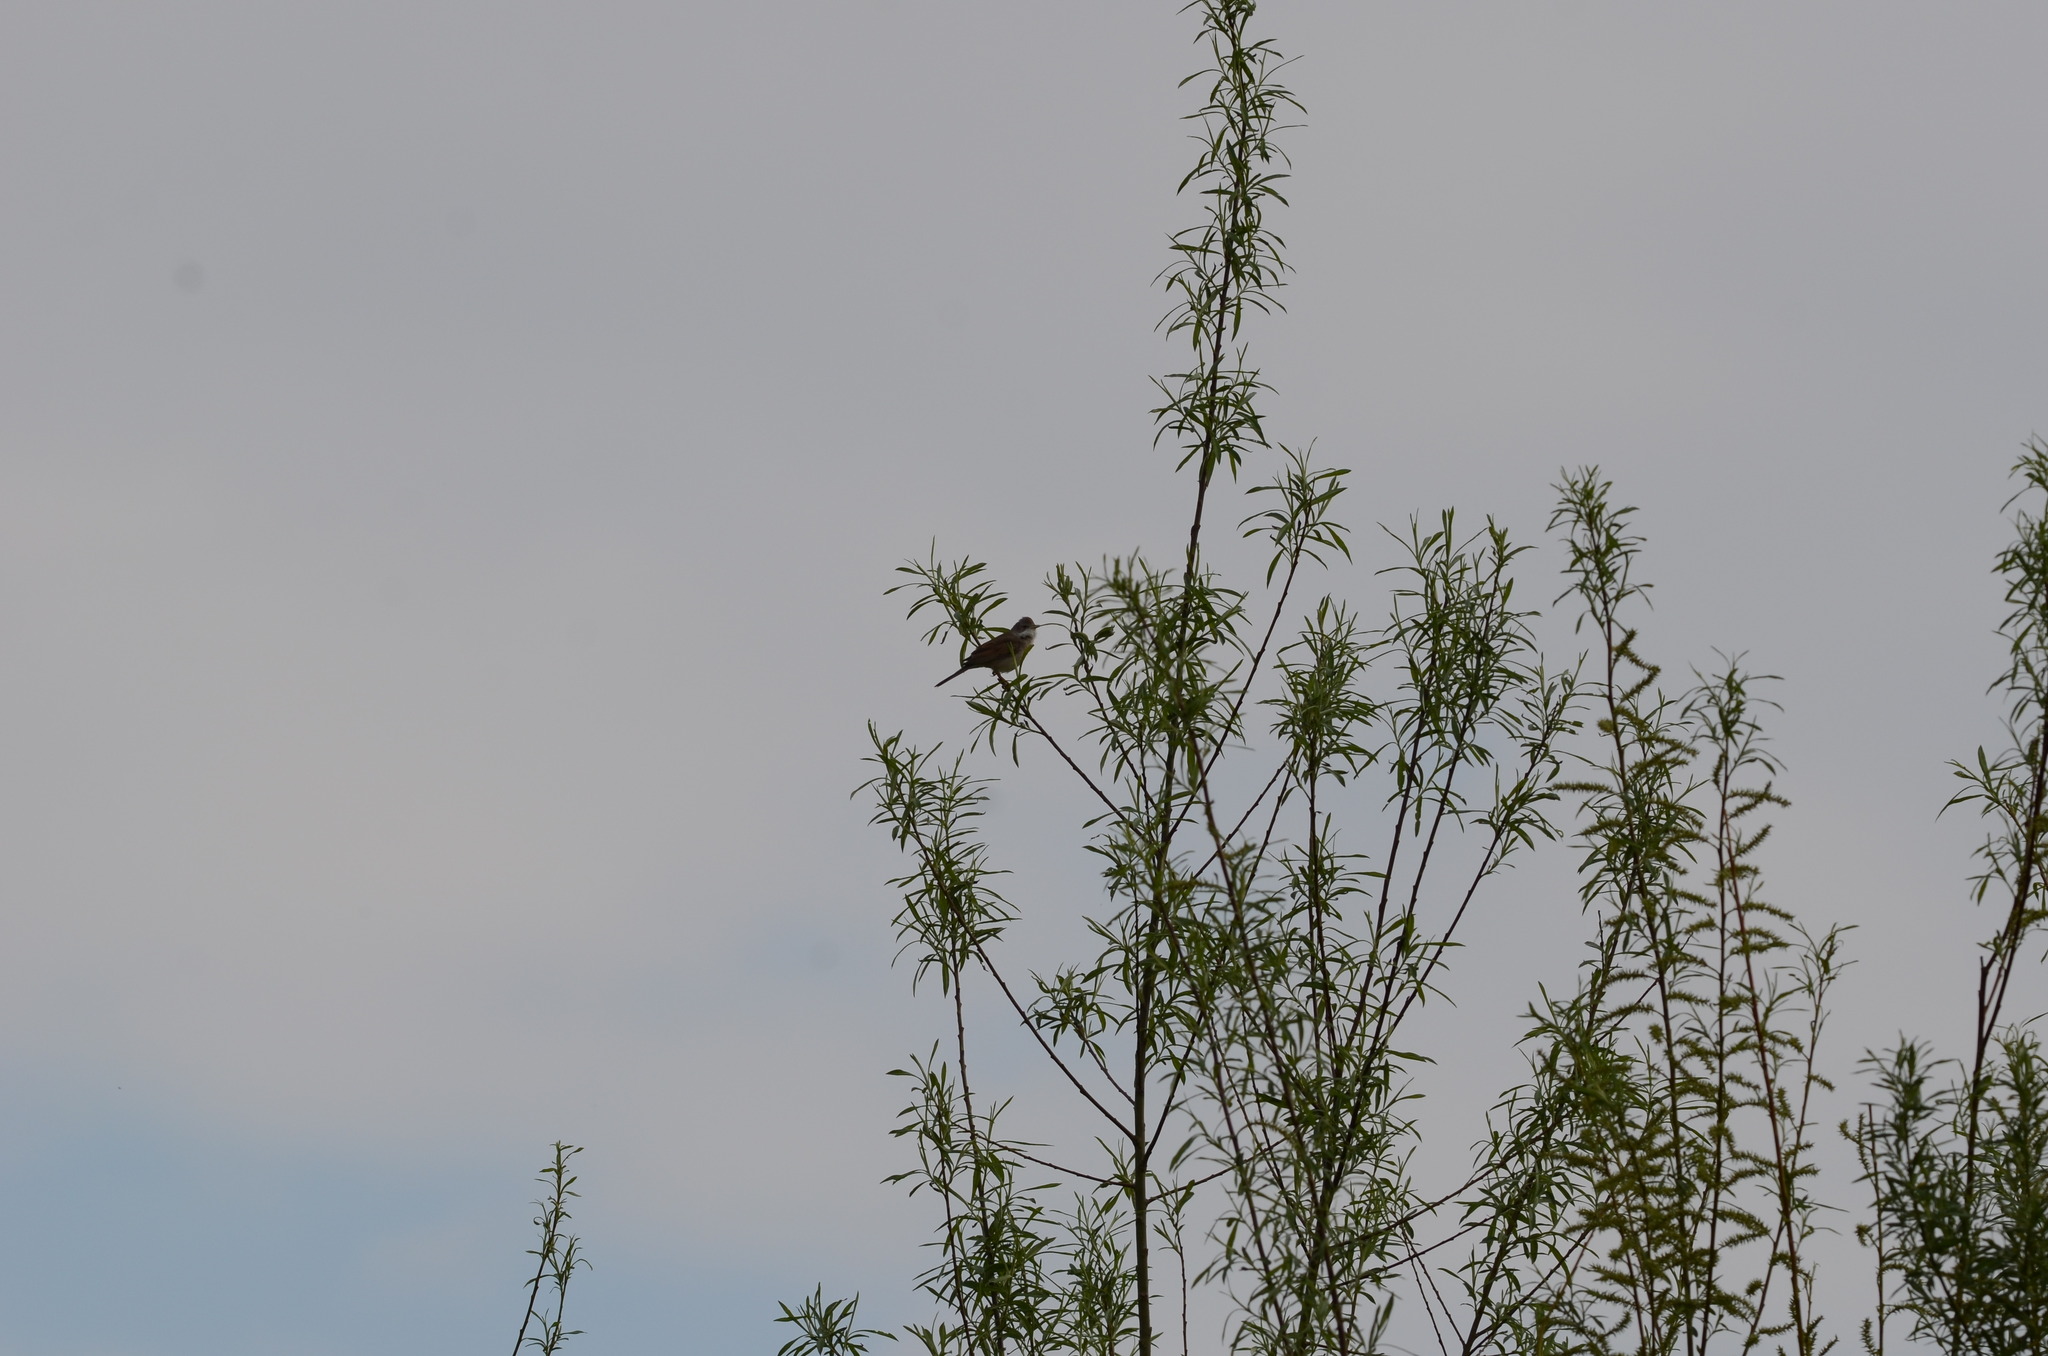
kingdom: Animalia
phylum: Chordata
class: Aves
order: Passeriformes
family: Sylviidae
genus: Sylvia
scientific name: Sylvia communis
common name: Common whitethroat
